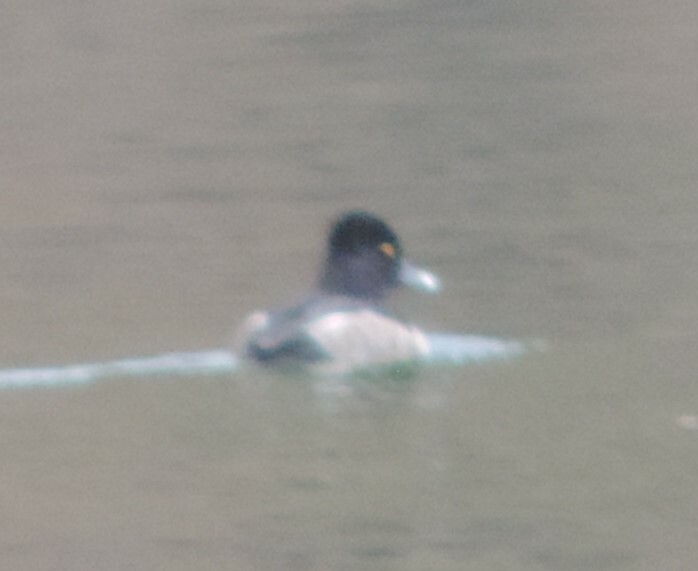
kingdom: Animalia
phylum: Chordata
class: Aves
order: Anseriformes
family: Anatidae
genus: Aythya
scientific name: Aythya collaris
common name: Ring-necked duck
